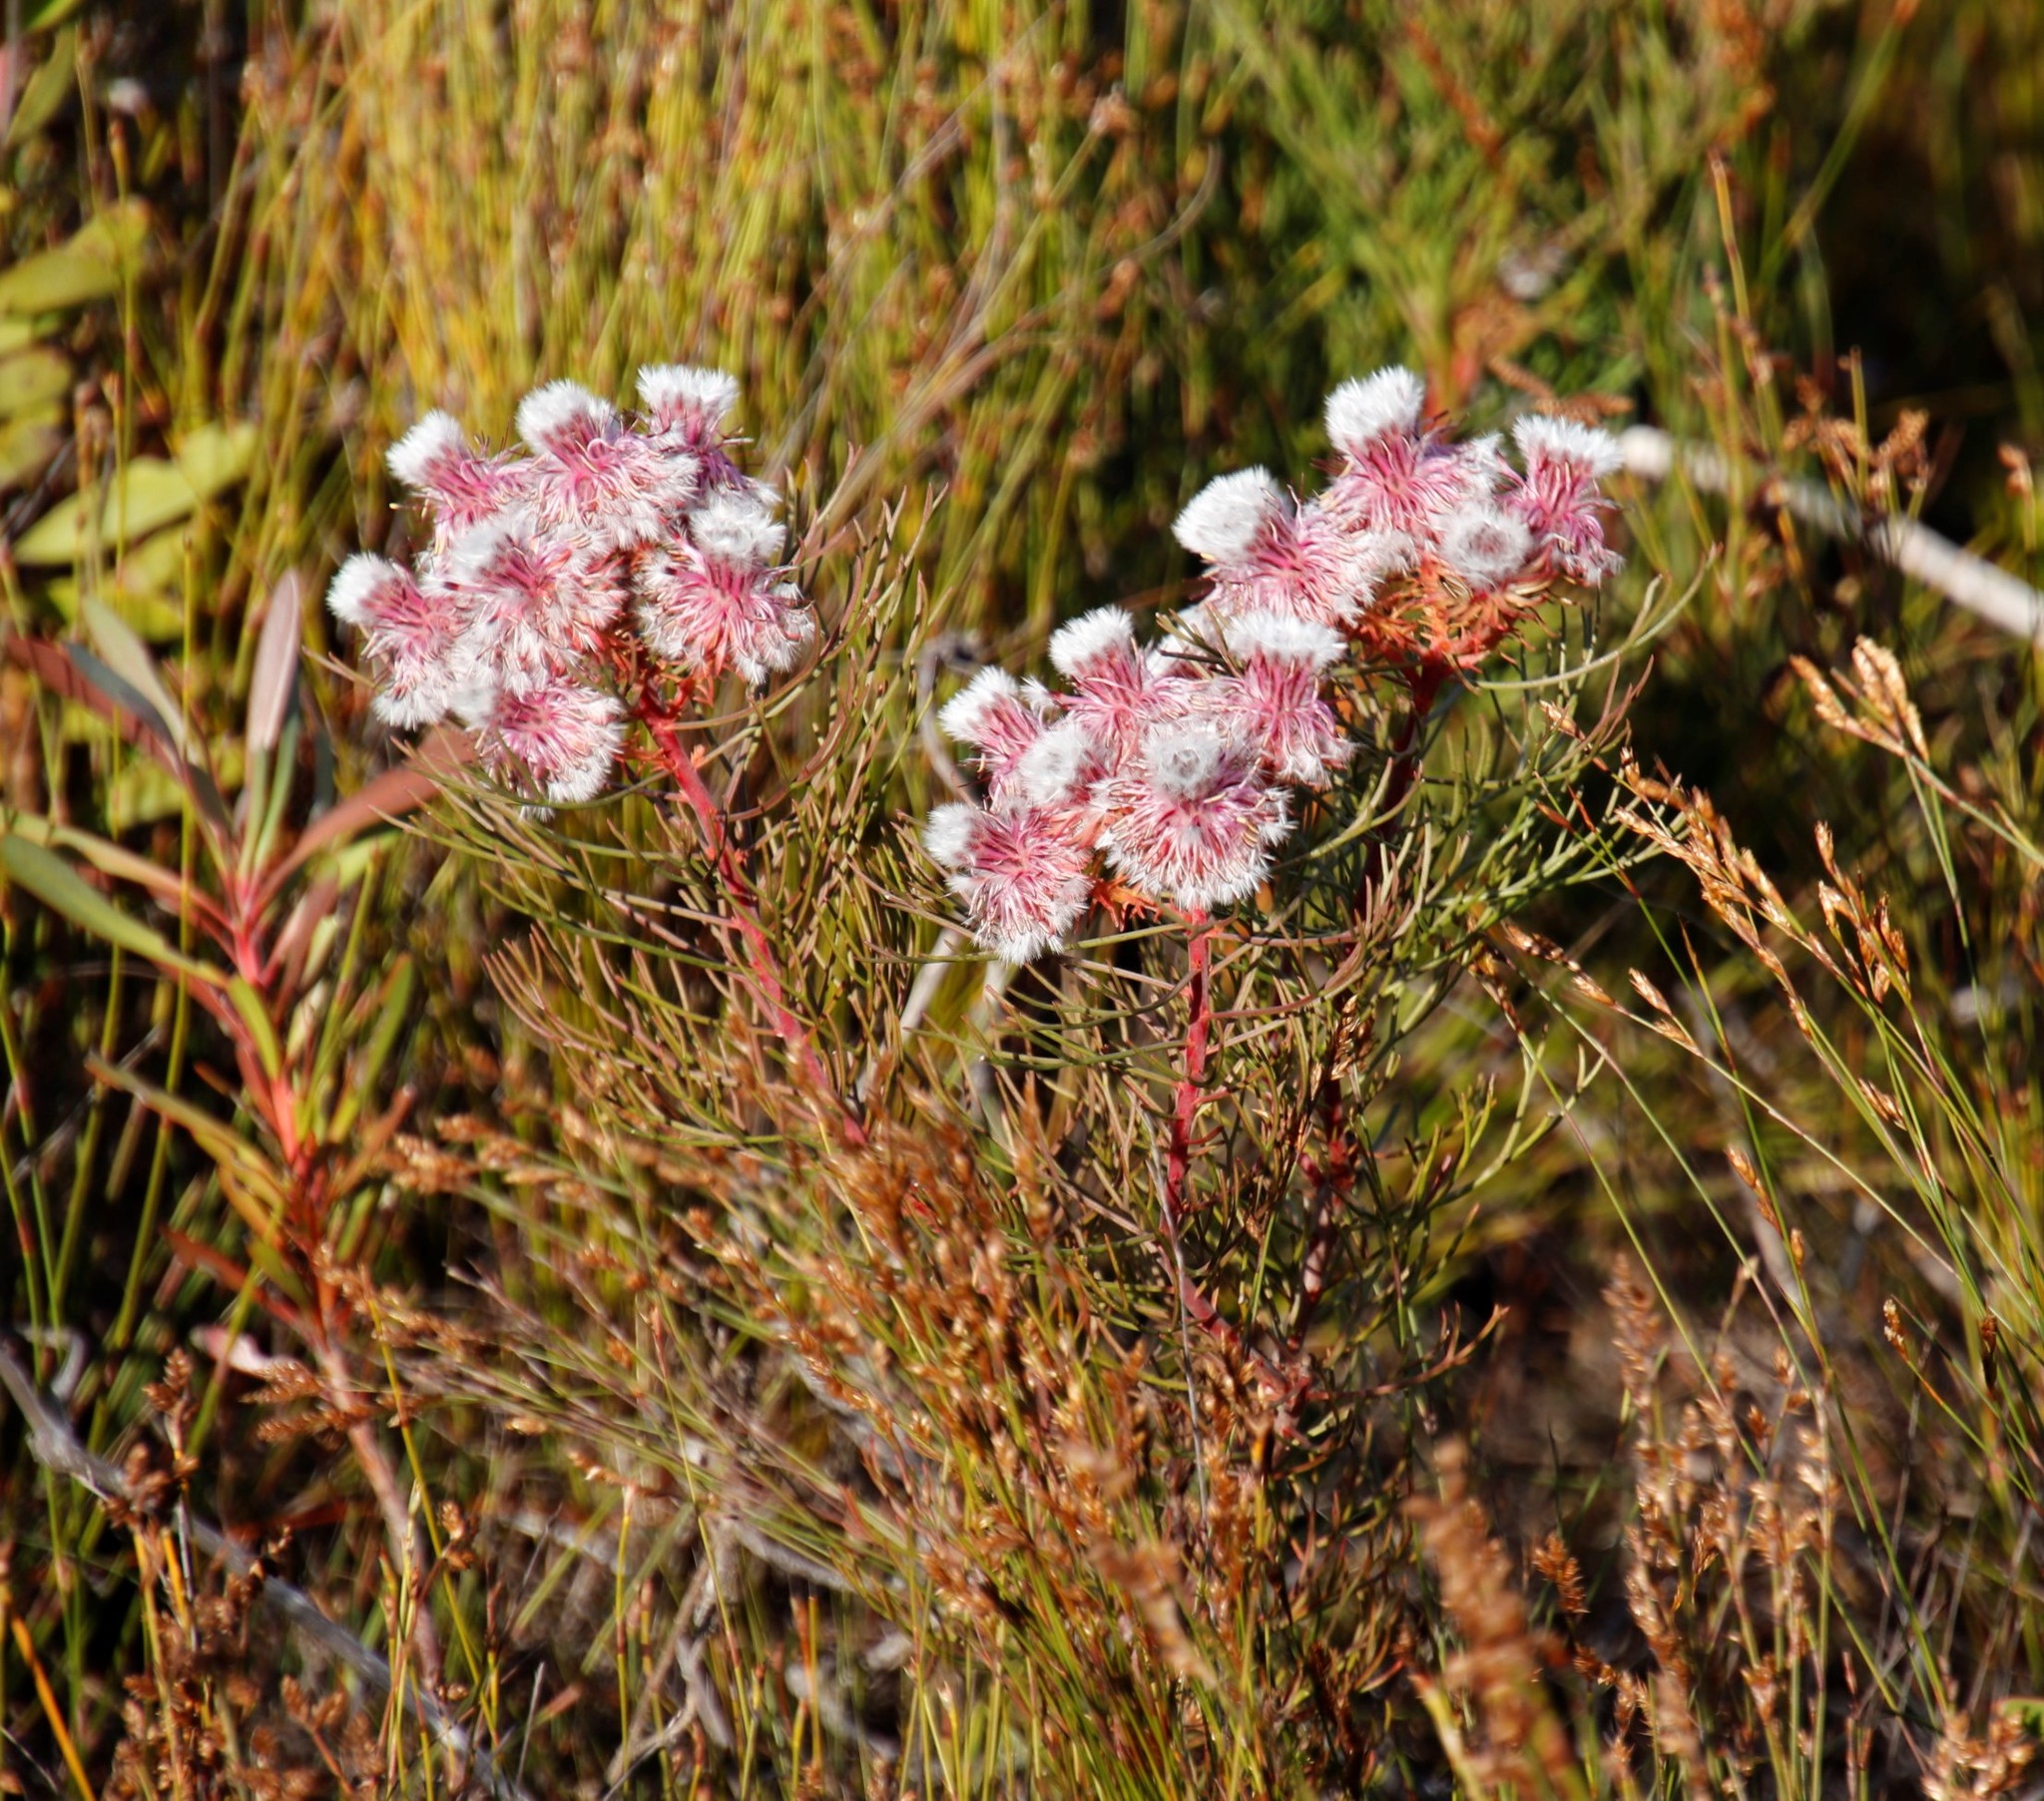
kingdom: Plantae
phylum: Tracheophyta
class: Magnoliopsida
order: Proteales
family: Proteaceae
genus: Serruria
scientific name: Serruria phylicoides
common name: Bearded spiderhead
